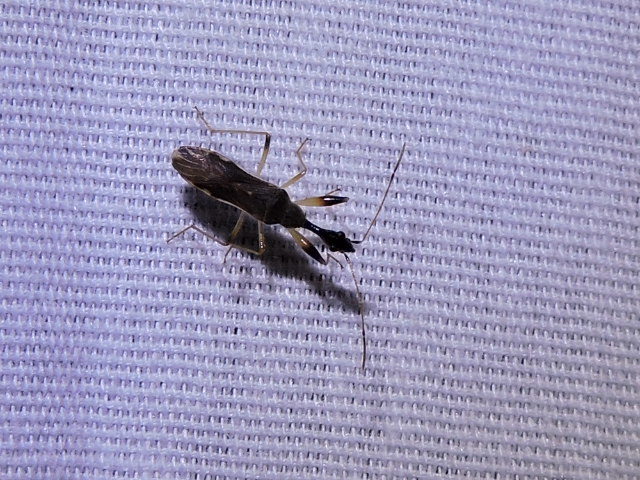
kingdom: Animalia
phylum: Arthropoda
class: Insecta
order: Hemiptera
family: Rhyparochromidae
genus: Myodocha
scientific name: Myodocha serripes
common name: Long-necked seed bug
